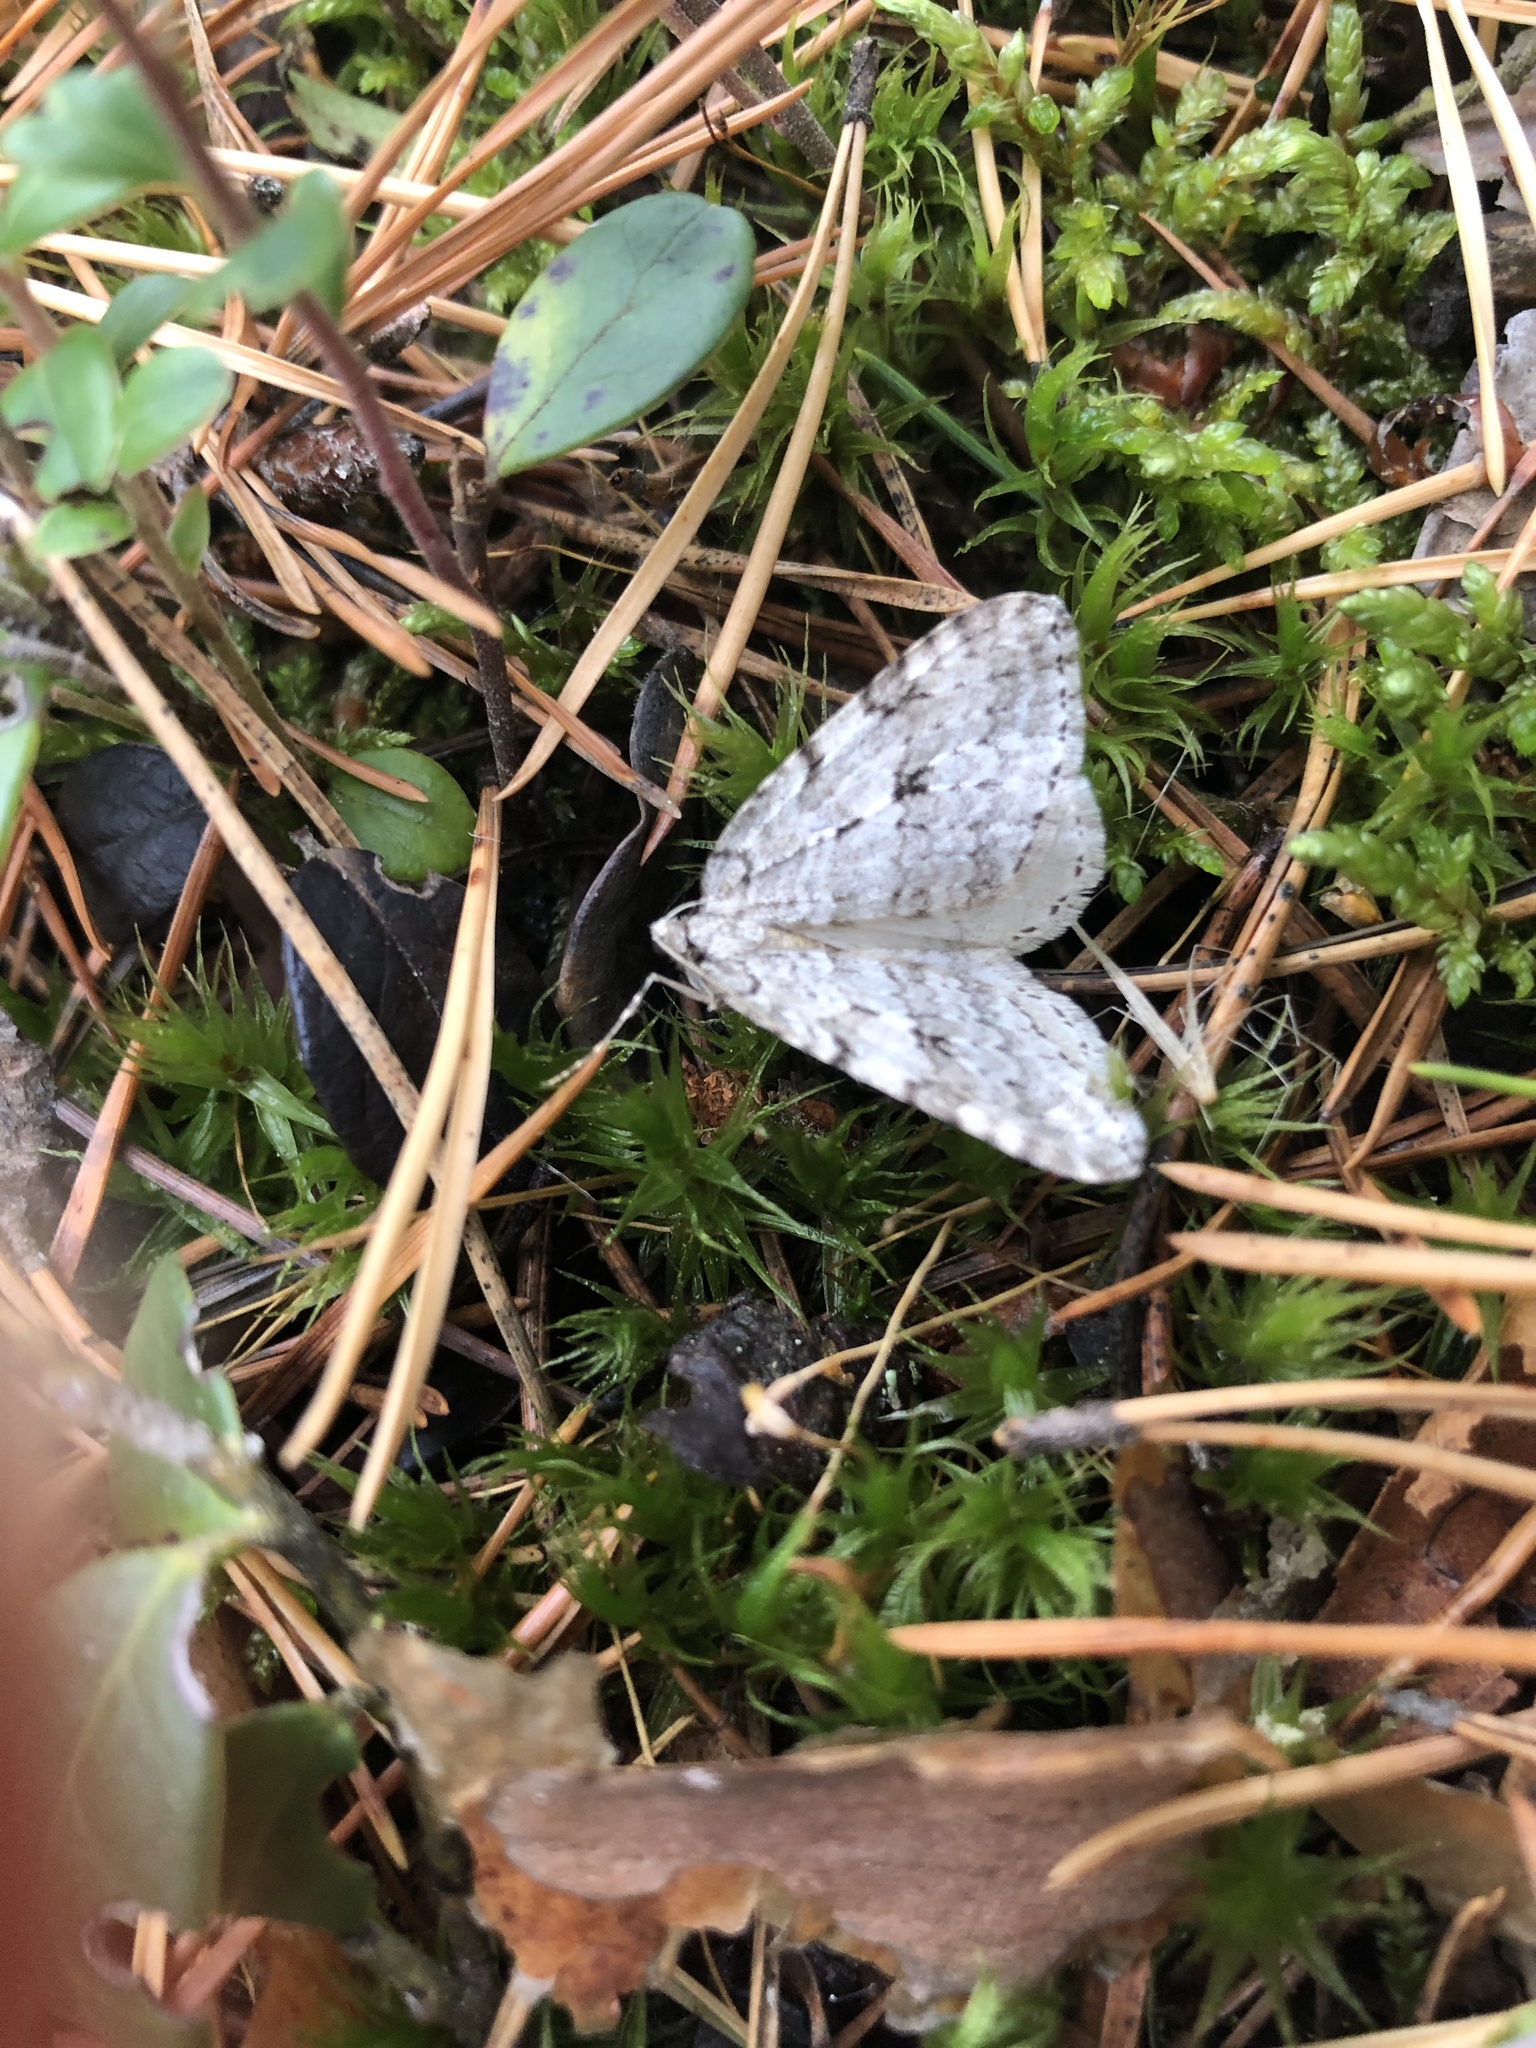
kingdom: Animalia
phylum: Arthropoda
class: Insecta
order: Lepidoptera
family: Geometridae
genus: Epirrita
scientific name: Epirrita autumnata
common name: Autumnal moth
